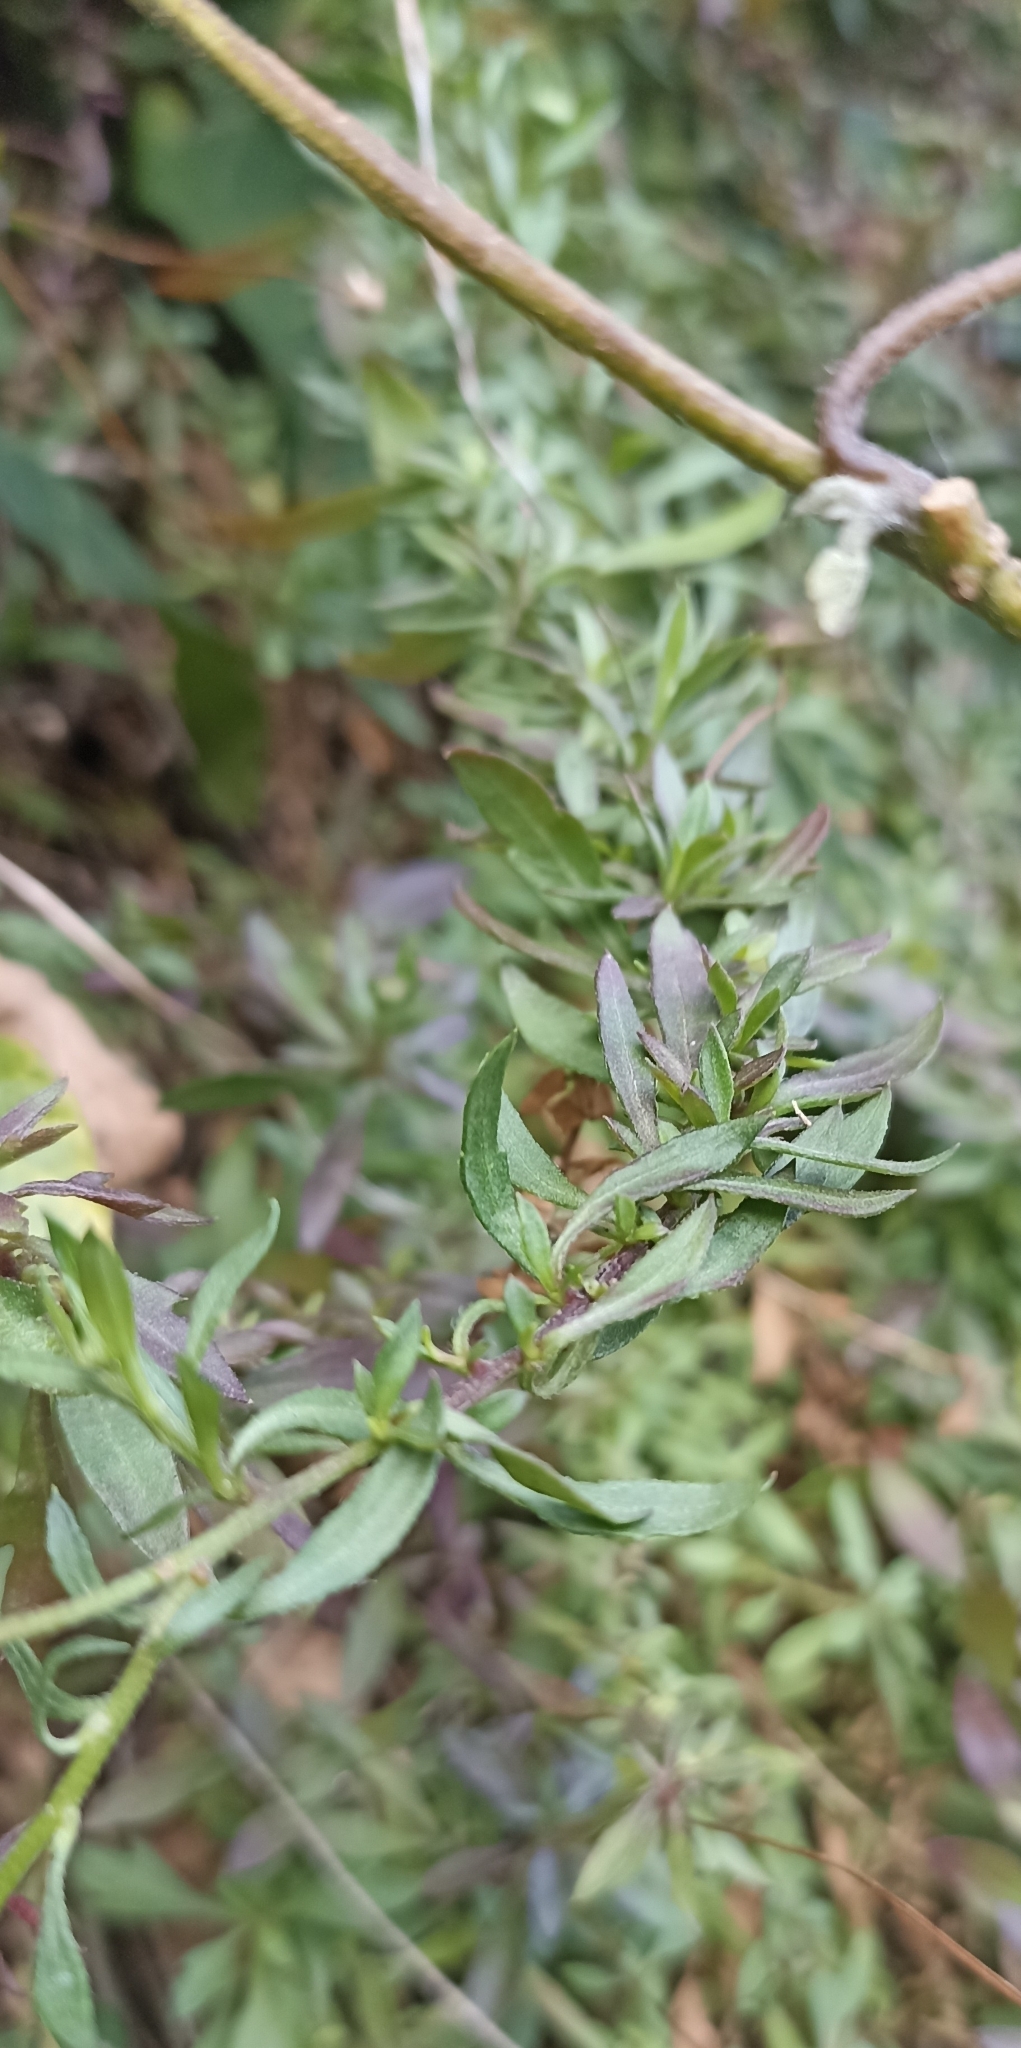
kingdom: Plantae
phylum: Tracheophyta
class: Magnoliopsida
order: Asterales
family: Asteraceae
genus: Erigeron
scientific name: Erigeron karvinskianus
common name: Mexican fleabane
